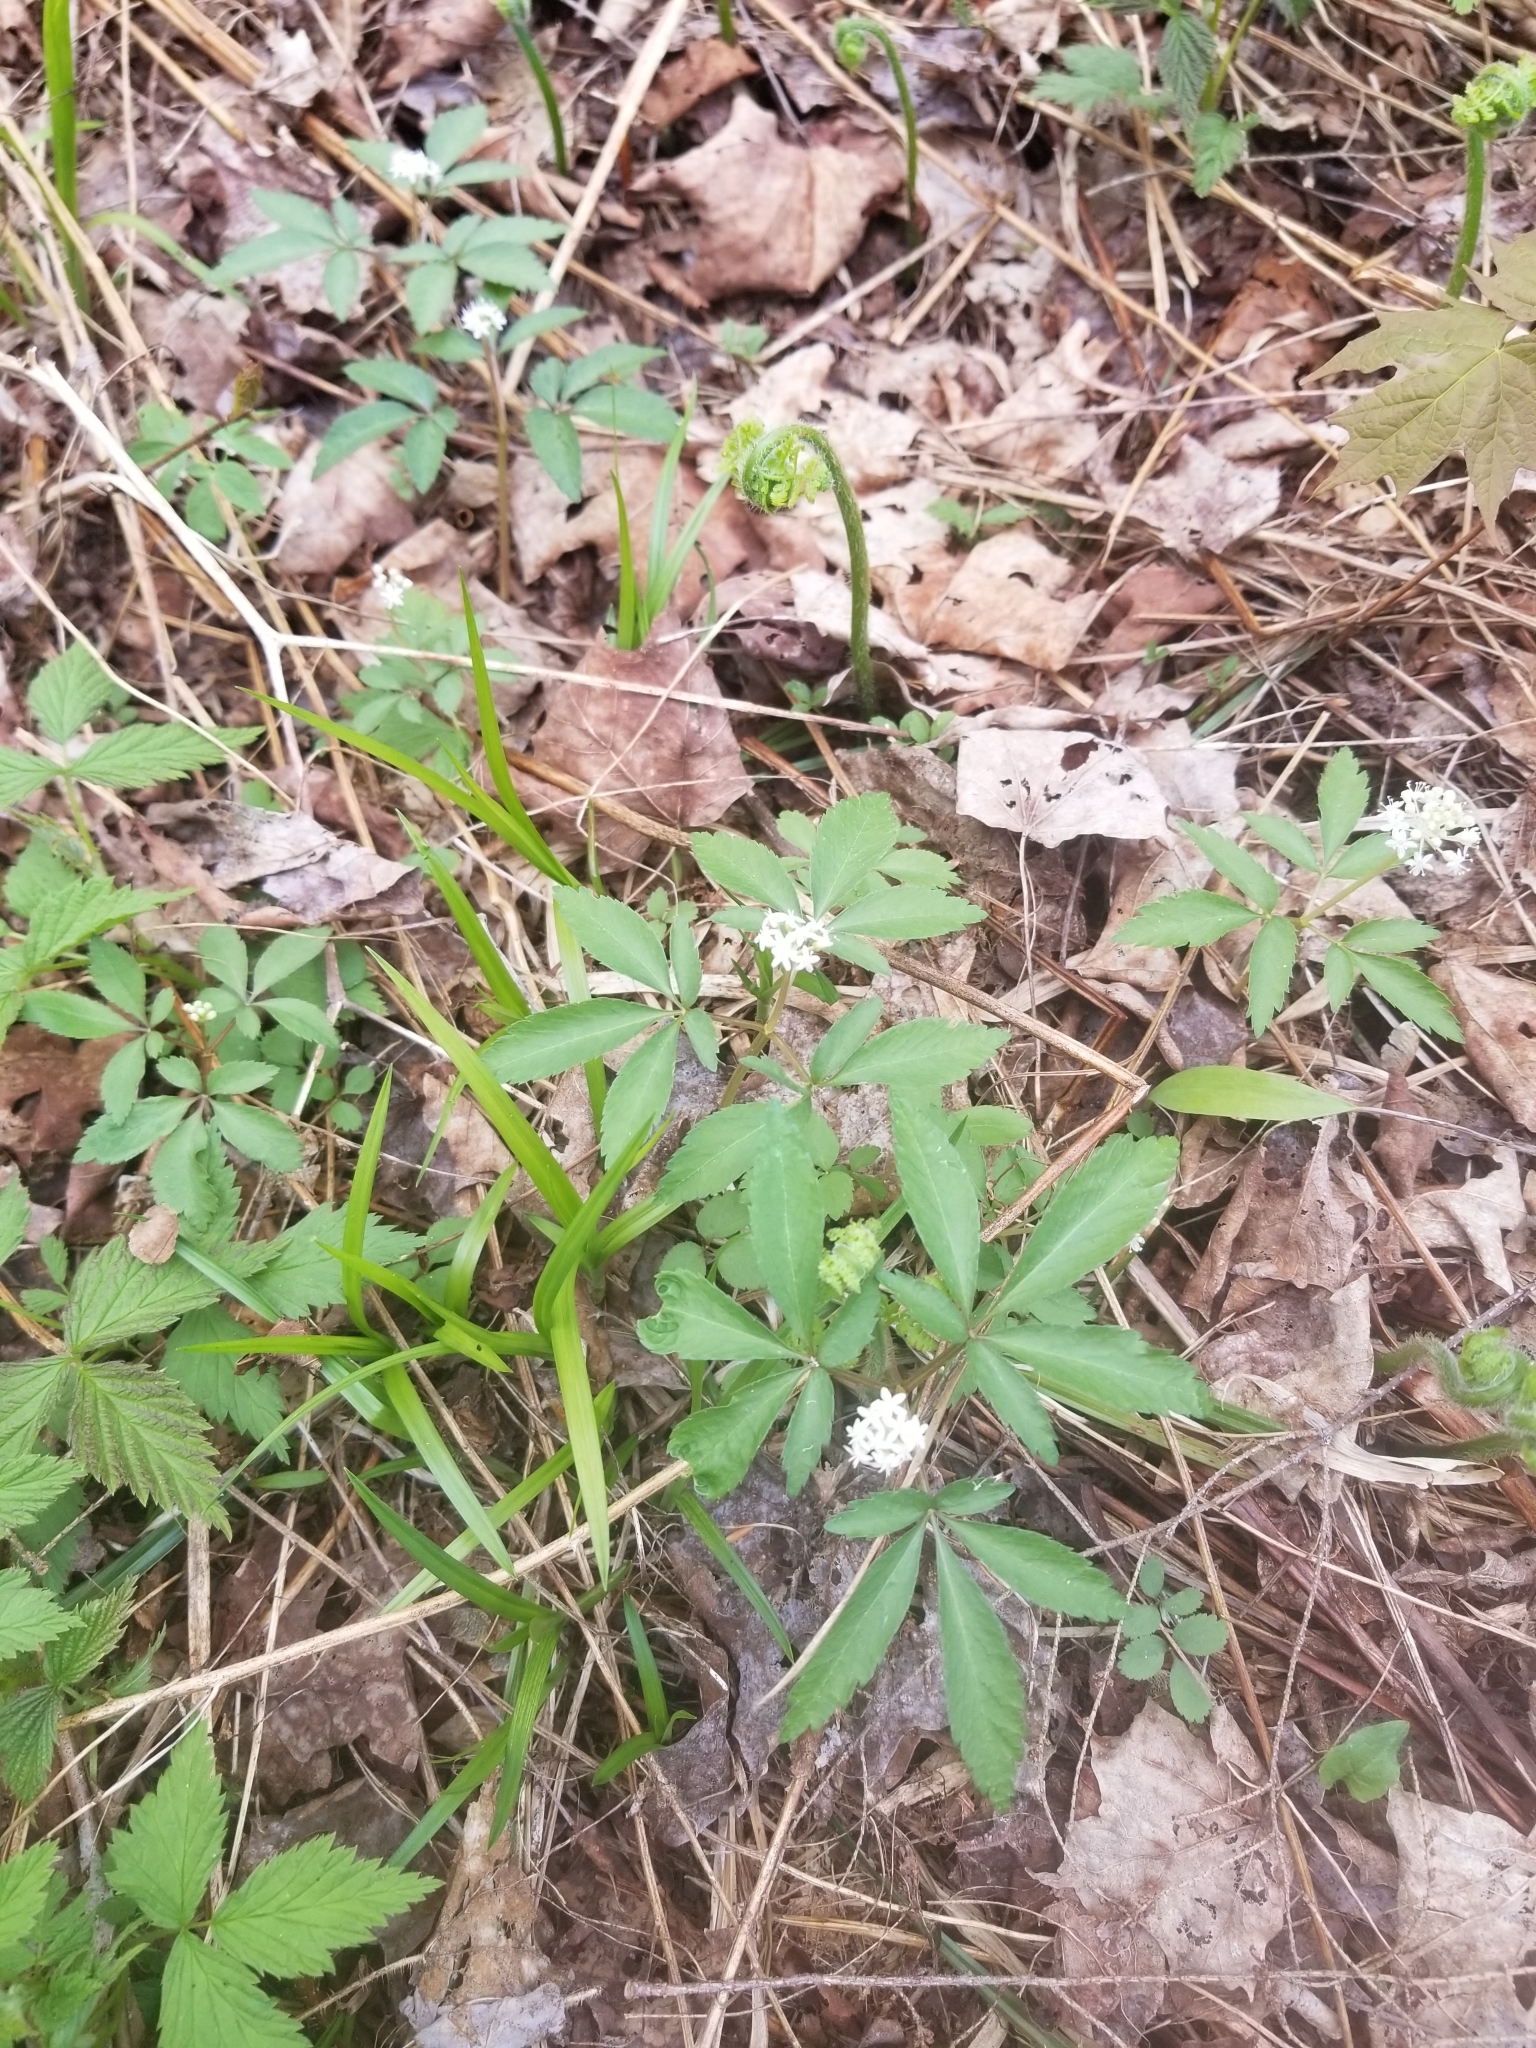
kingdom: Plantae
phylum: Tracheophyta
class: Magnoliopsida
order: Apiales
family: Araliaceae
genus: Panax
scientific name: Panax trifolius
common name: Dwarf ginseng
